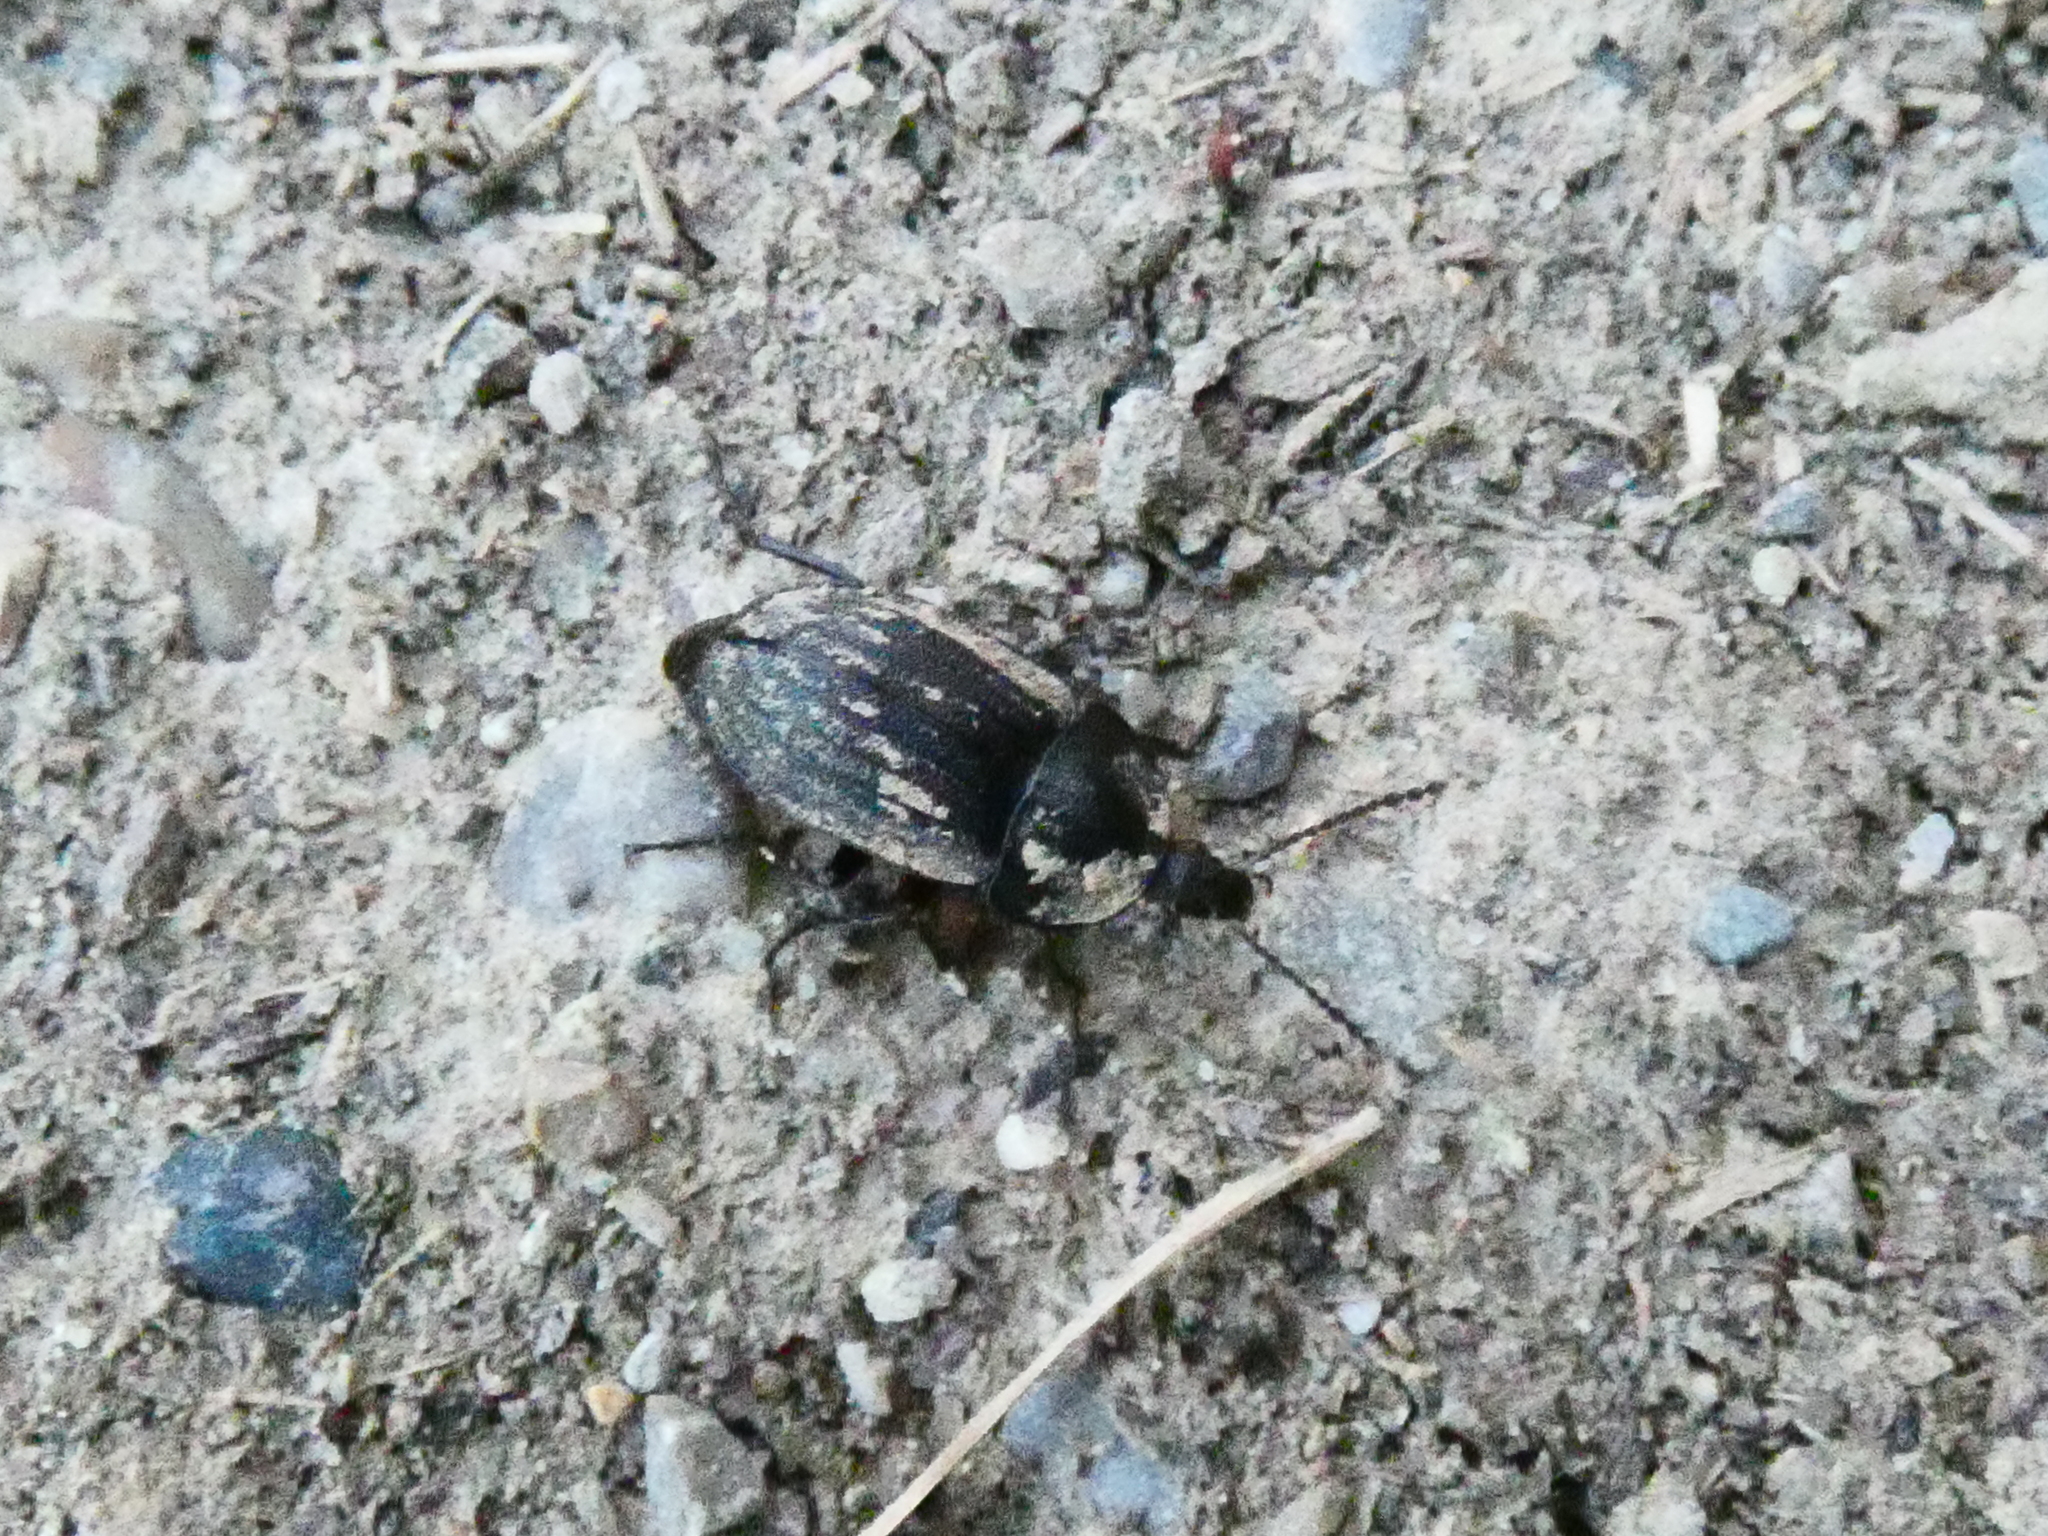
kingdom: Animalia
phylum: Arthropoda
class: Insecta
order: Coleoptera
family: Staphylinidae
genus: Silpha
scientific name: Silpha atrata
